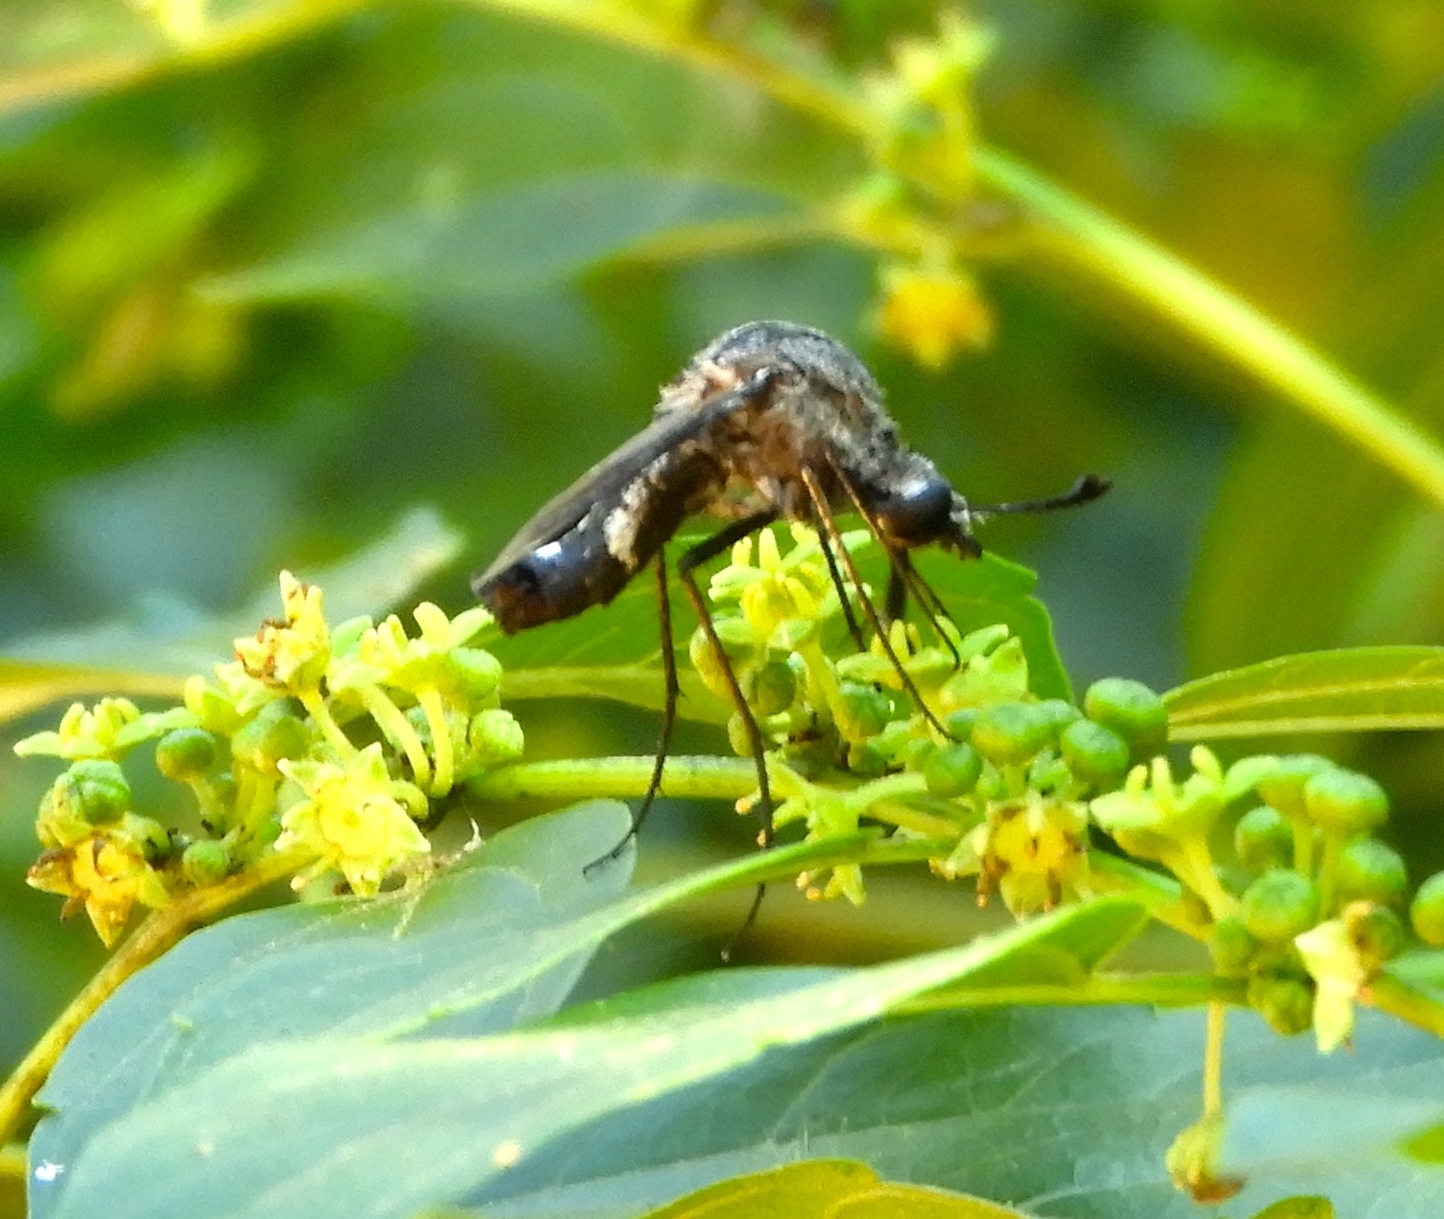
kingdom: Animalia
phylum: Arthropoda
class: Insecta
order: Diptera
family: Bombyliidae
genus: Lepidophora
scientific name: Lepidophora
